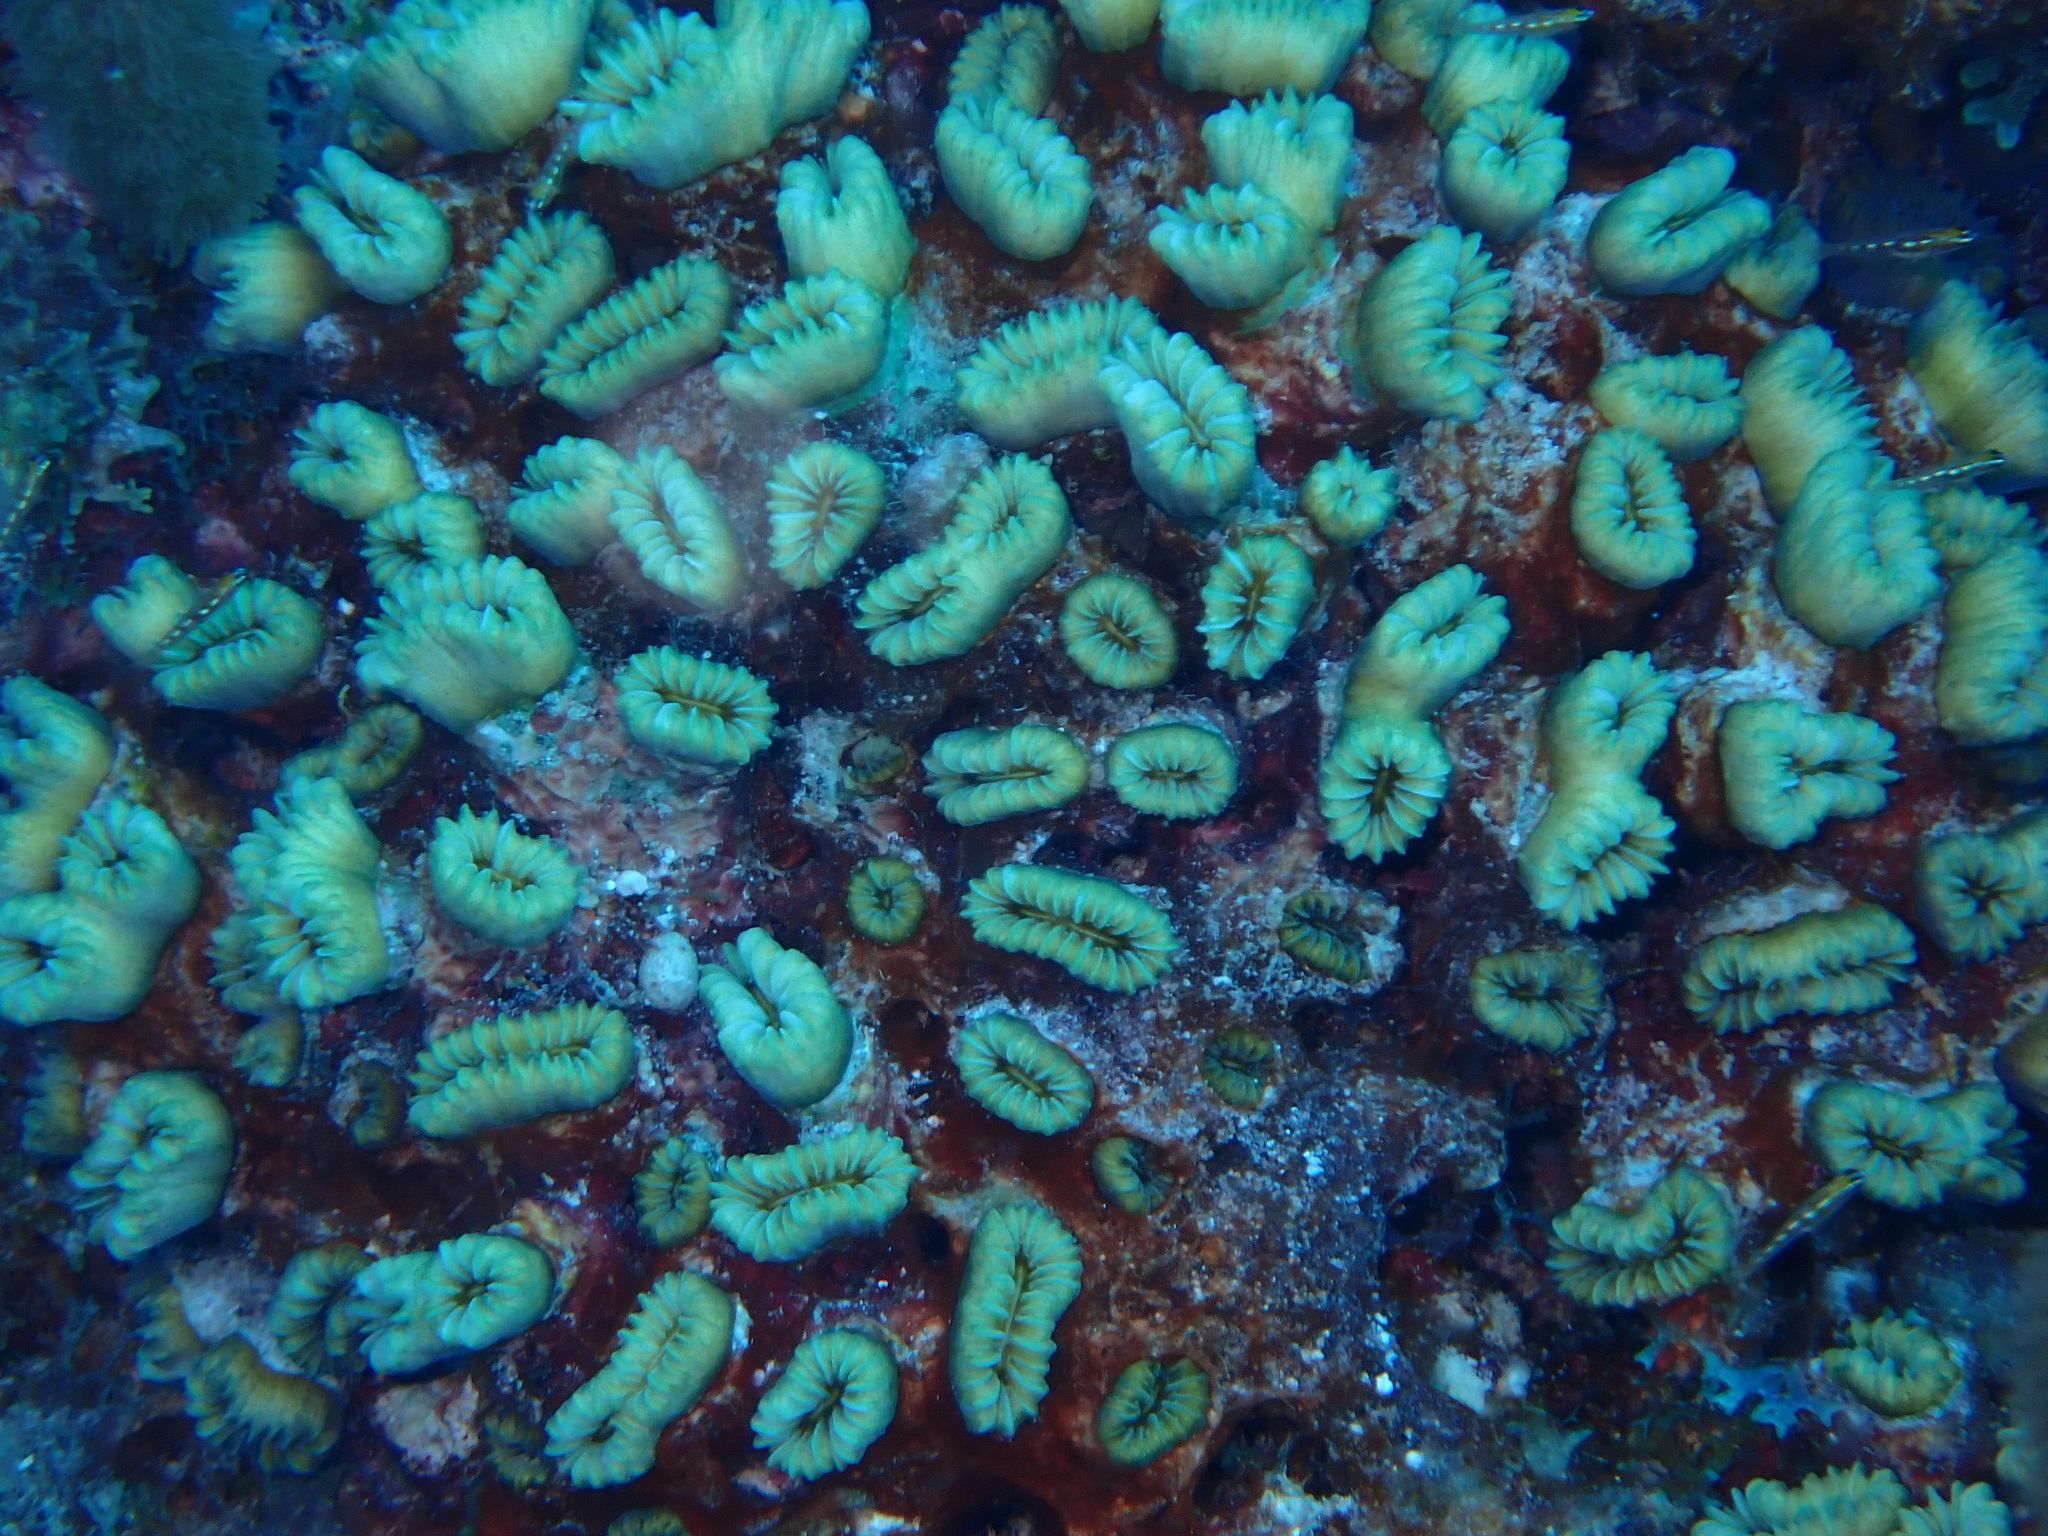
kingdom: Animalia
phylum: Cnidaria
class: Anthozoa
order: Scleractinia
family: Meandrinidae
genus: Eusmilia
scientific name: Eusmilia fastigiata
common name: Smooth flower coral
